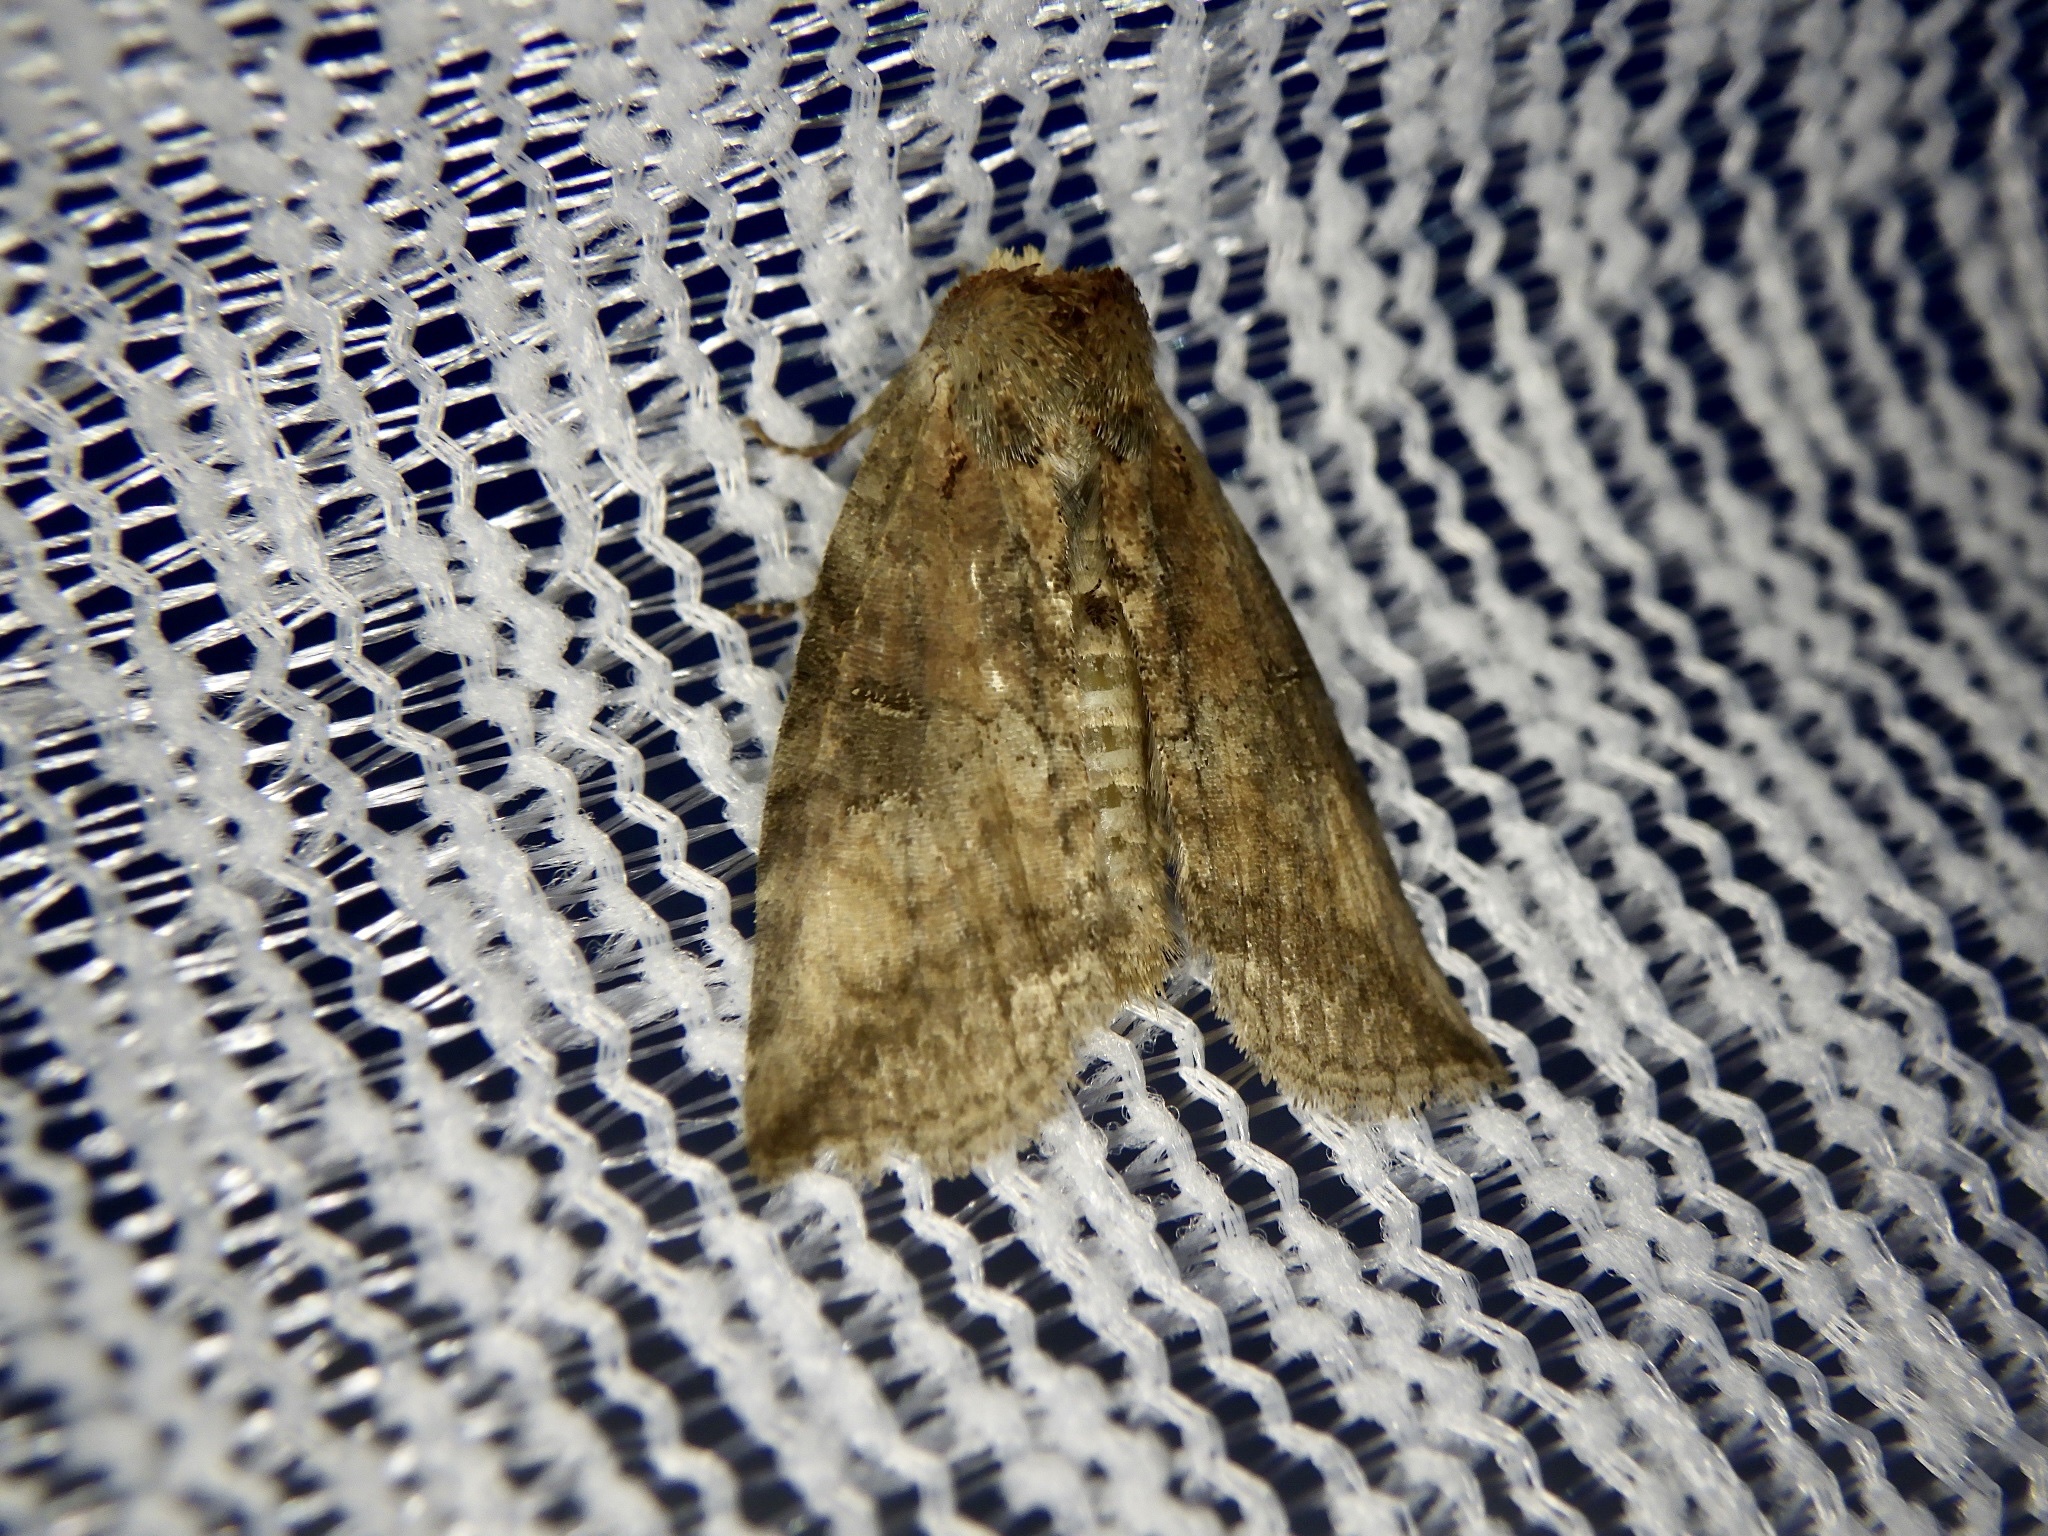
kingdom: Animalia
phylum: Arthropoda
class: Insecta
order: Lepidoptera
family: Drepanidae
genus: Epipsestis
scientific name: Epipsestis nikkoensis
